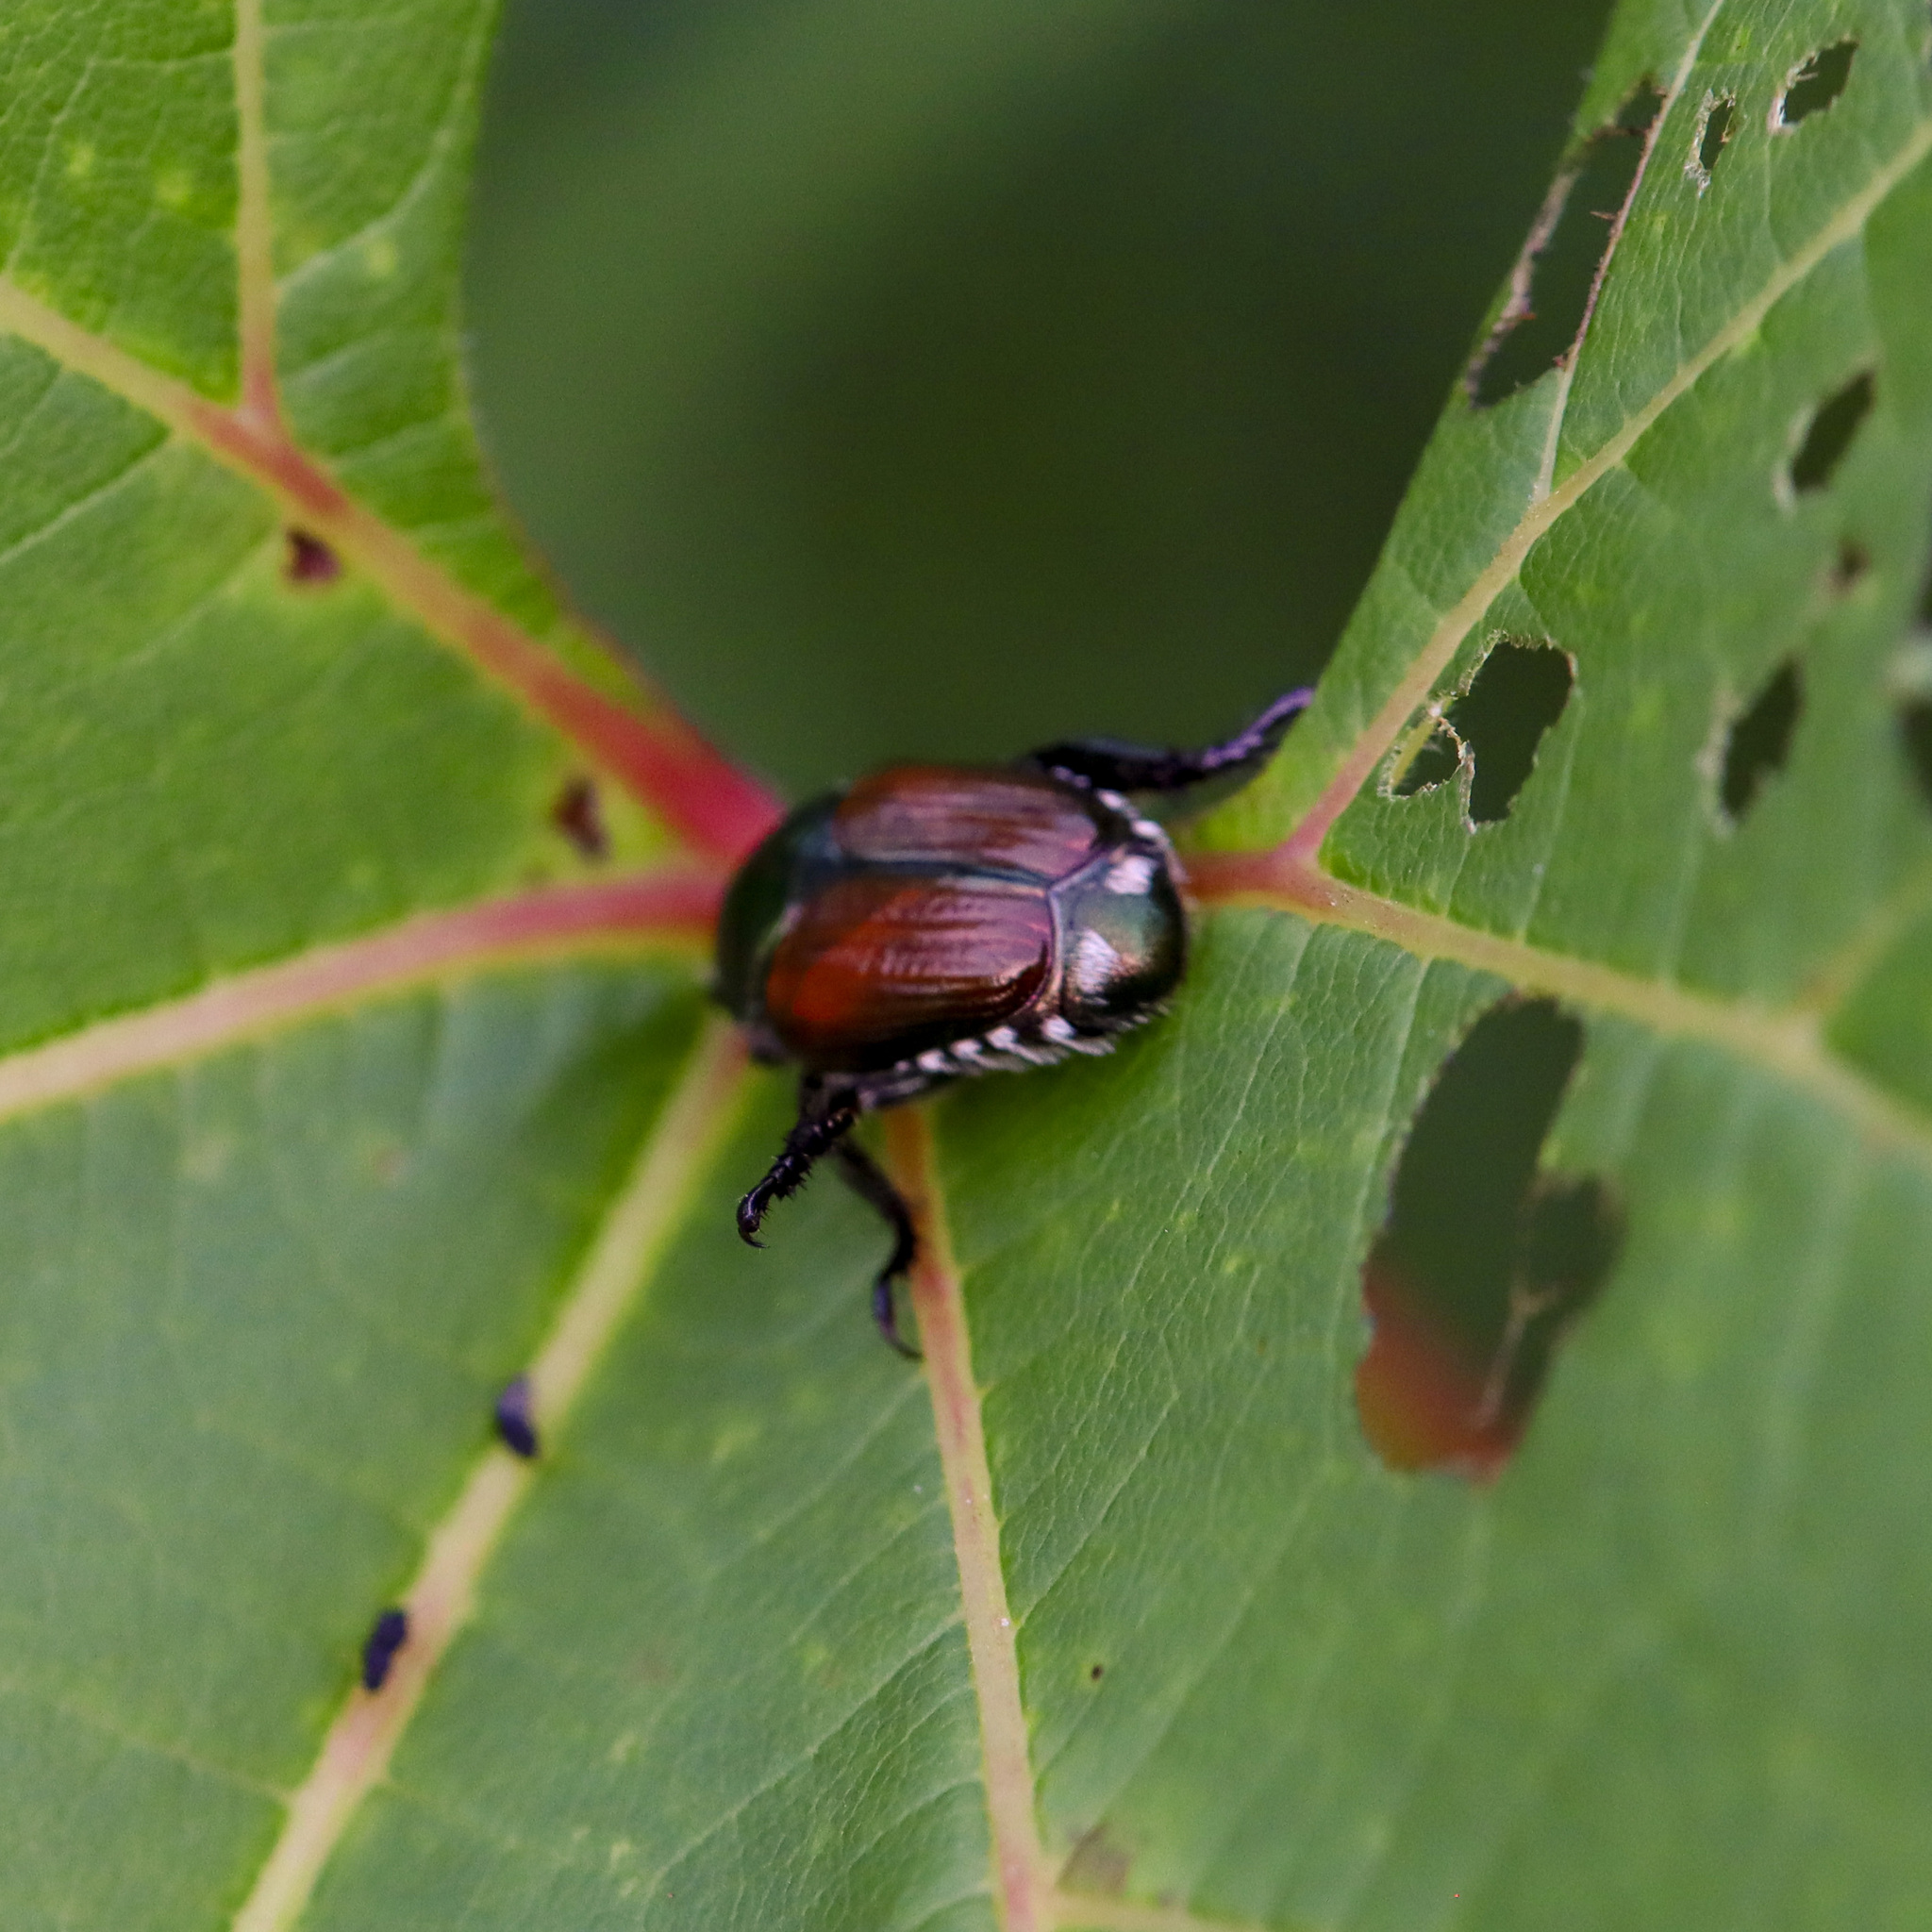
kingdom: Animalia
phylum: Arthropoda
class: Insecta
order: Coleoptera
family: Scarabaeidae
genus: Popillia
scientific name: Popillia japonica
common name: Japanese beetle
